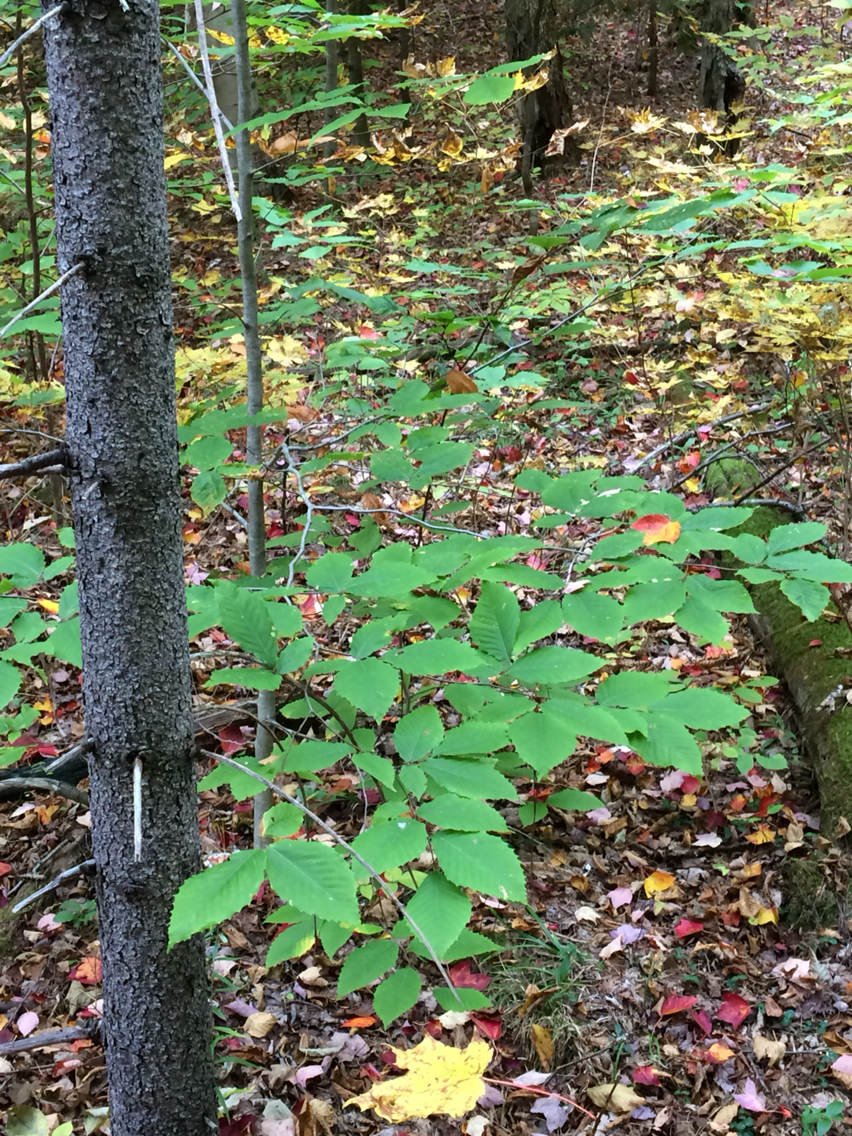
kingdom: Plantae
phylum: Tracheophyta
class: Magnoliopsida
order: Fagales
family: Fagaceae
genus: Fagus
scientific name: Fagus grandifolia
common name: American beech
